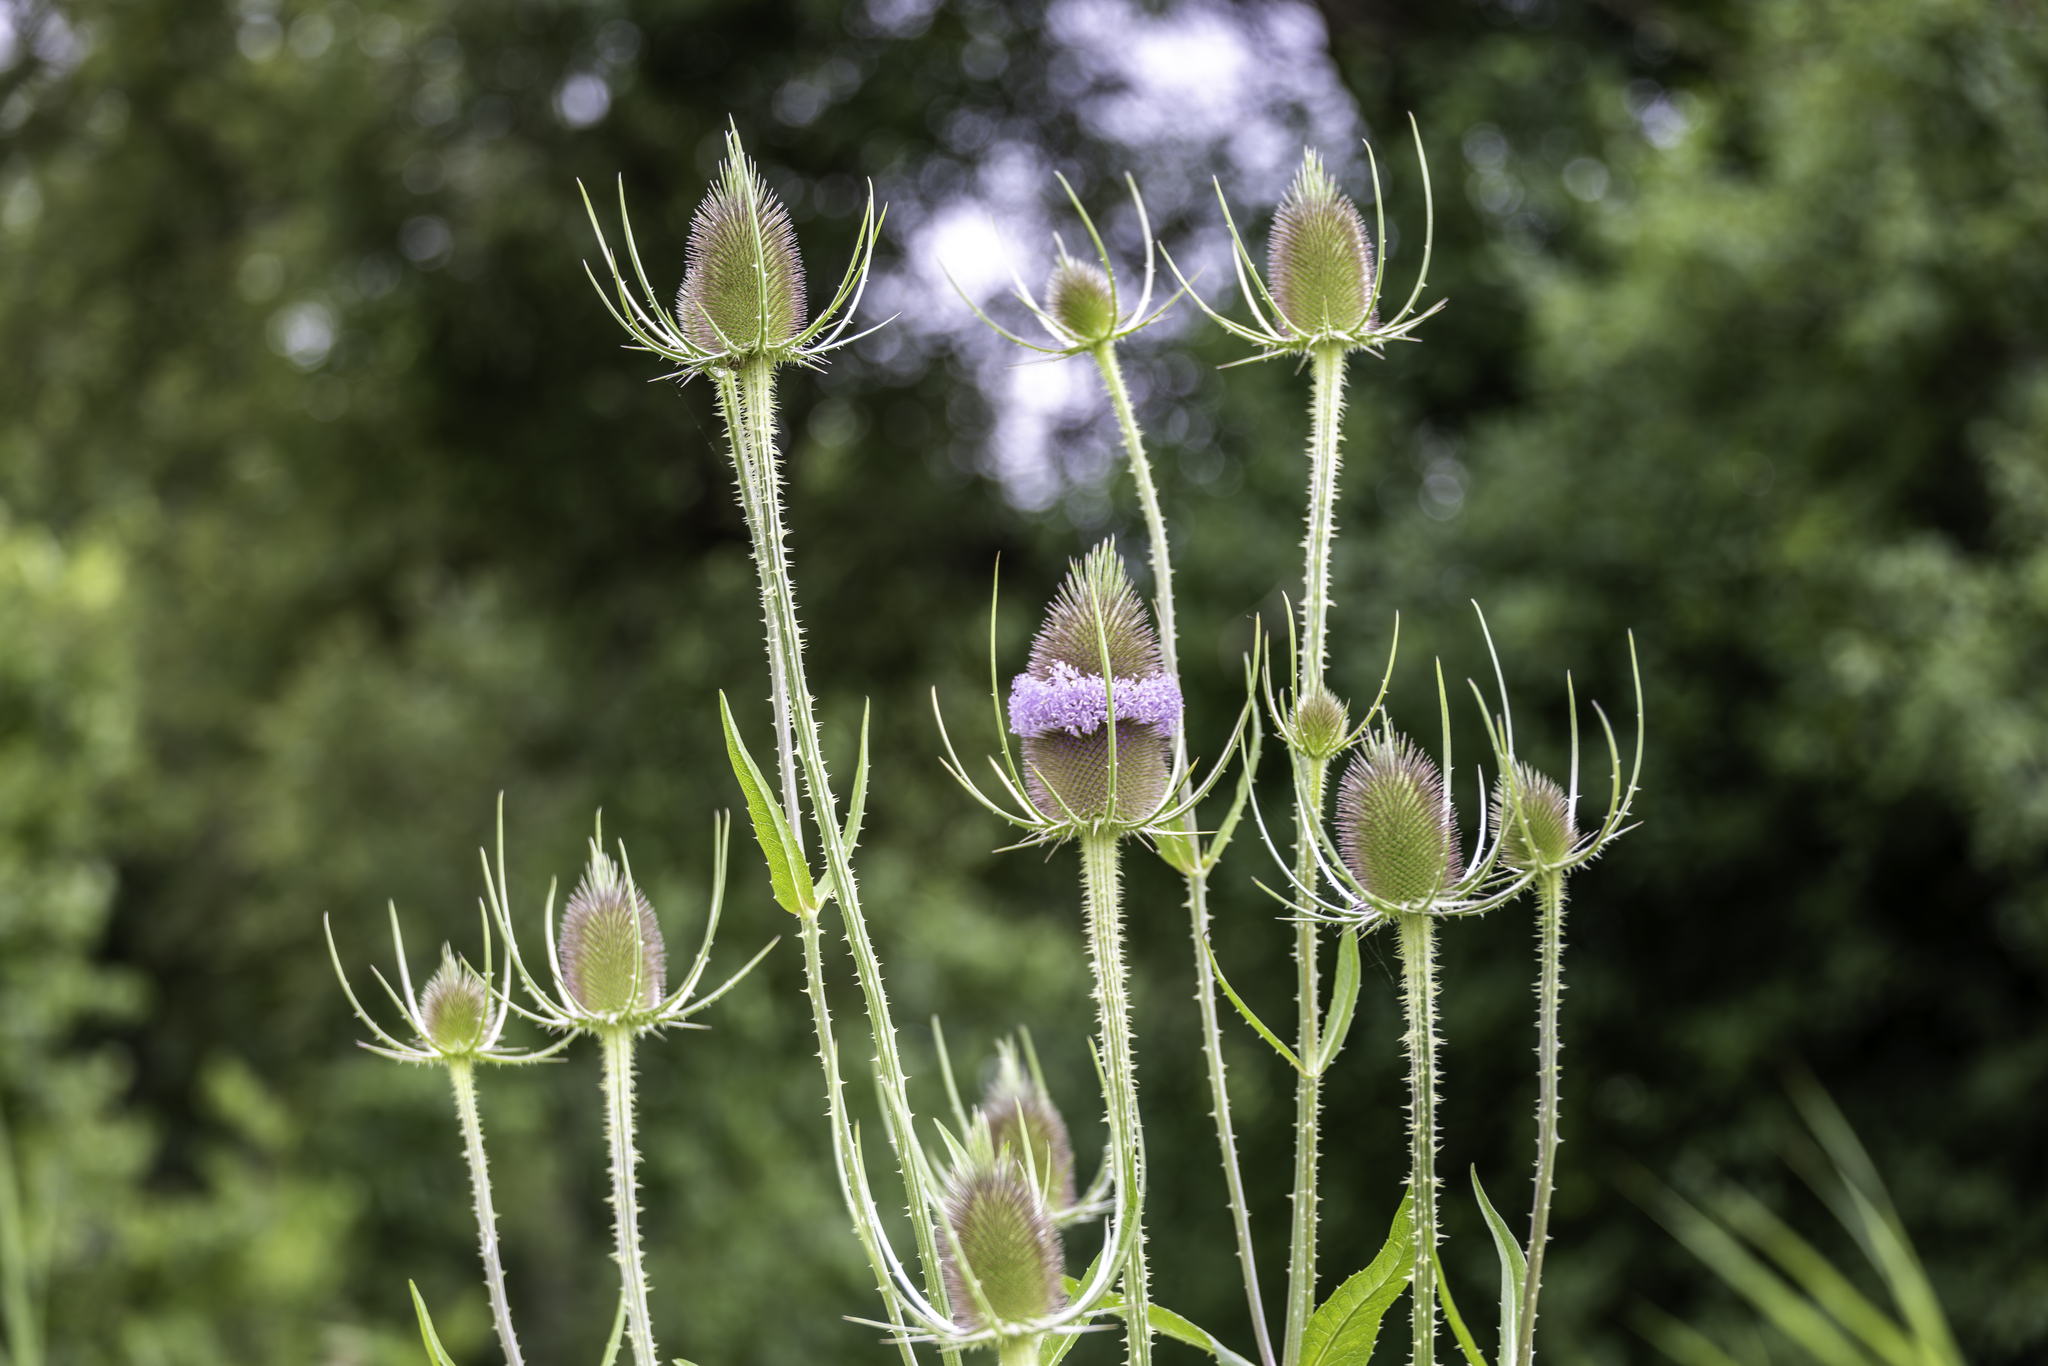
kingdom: Plantae
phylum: Tracheophyta
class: Magnoliopsida
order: Dipsacales
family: Caprifoliaceae
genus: Dipsacus
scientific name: Dipsacus fullonum
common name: Teasel
